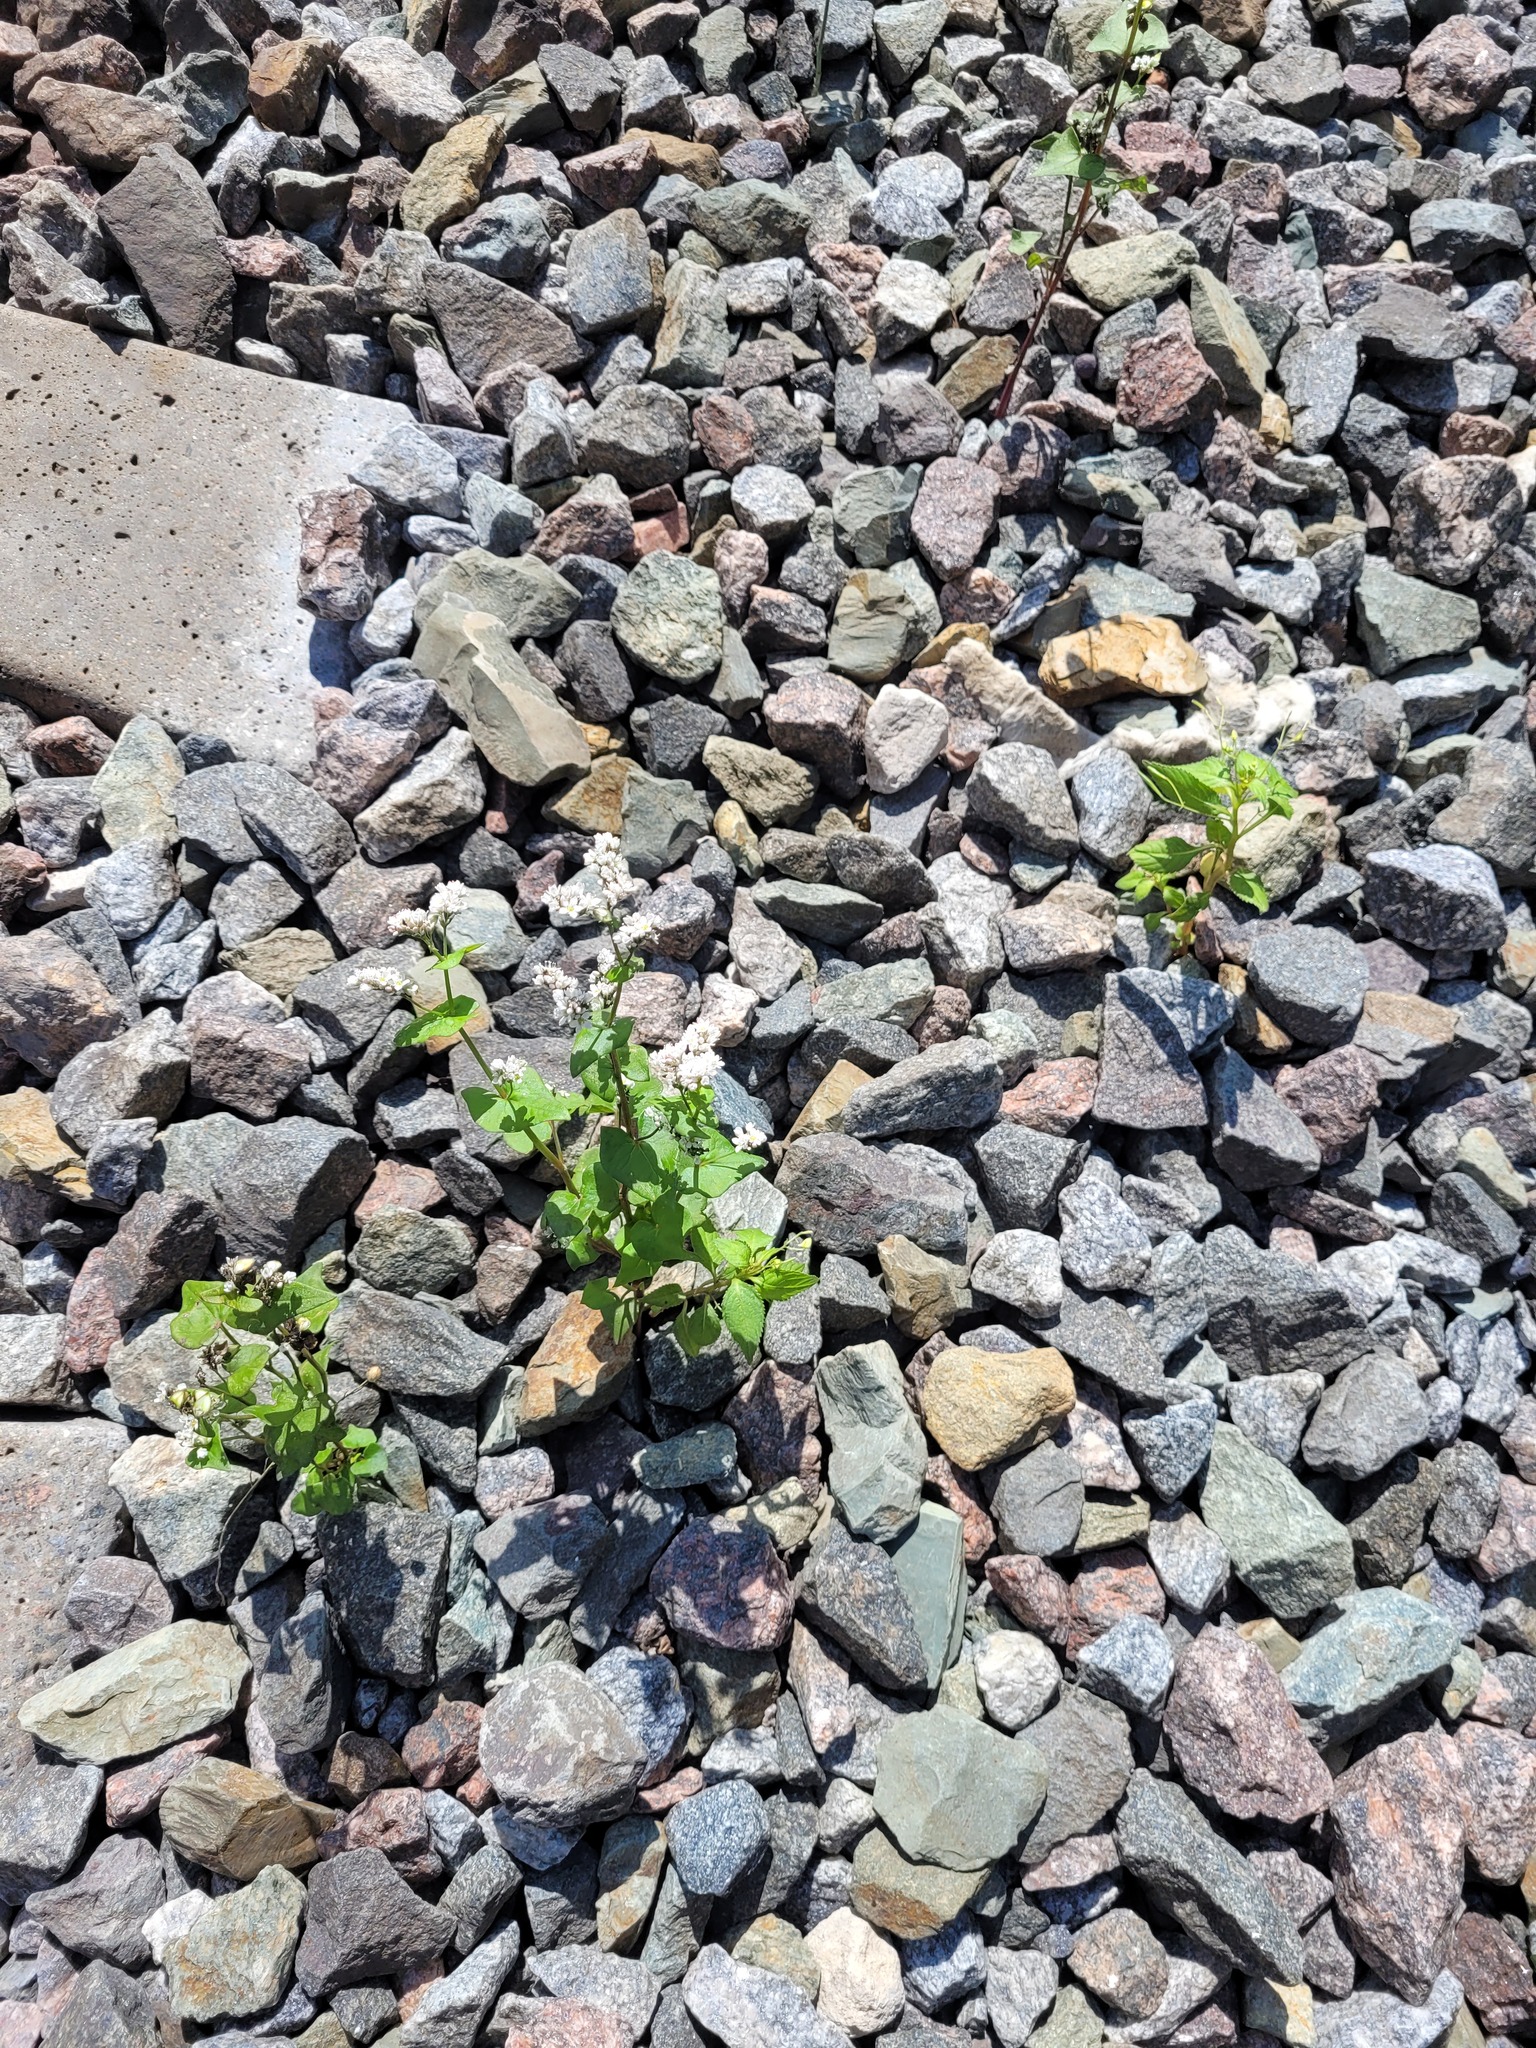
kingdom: Plantae
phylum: Tracheophyta
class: Magnoliopsida
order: Caryophyllales
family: Polygonaceae
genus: Fagopyrum
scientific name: Fagopyrum esculentum
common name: Buckwheat
